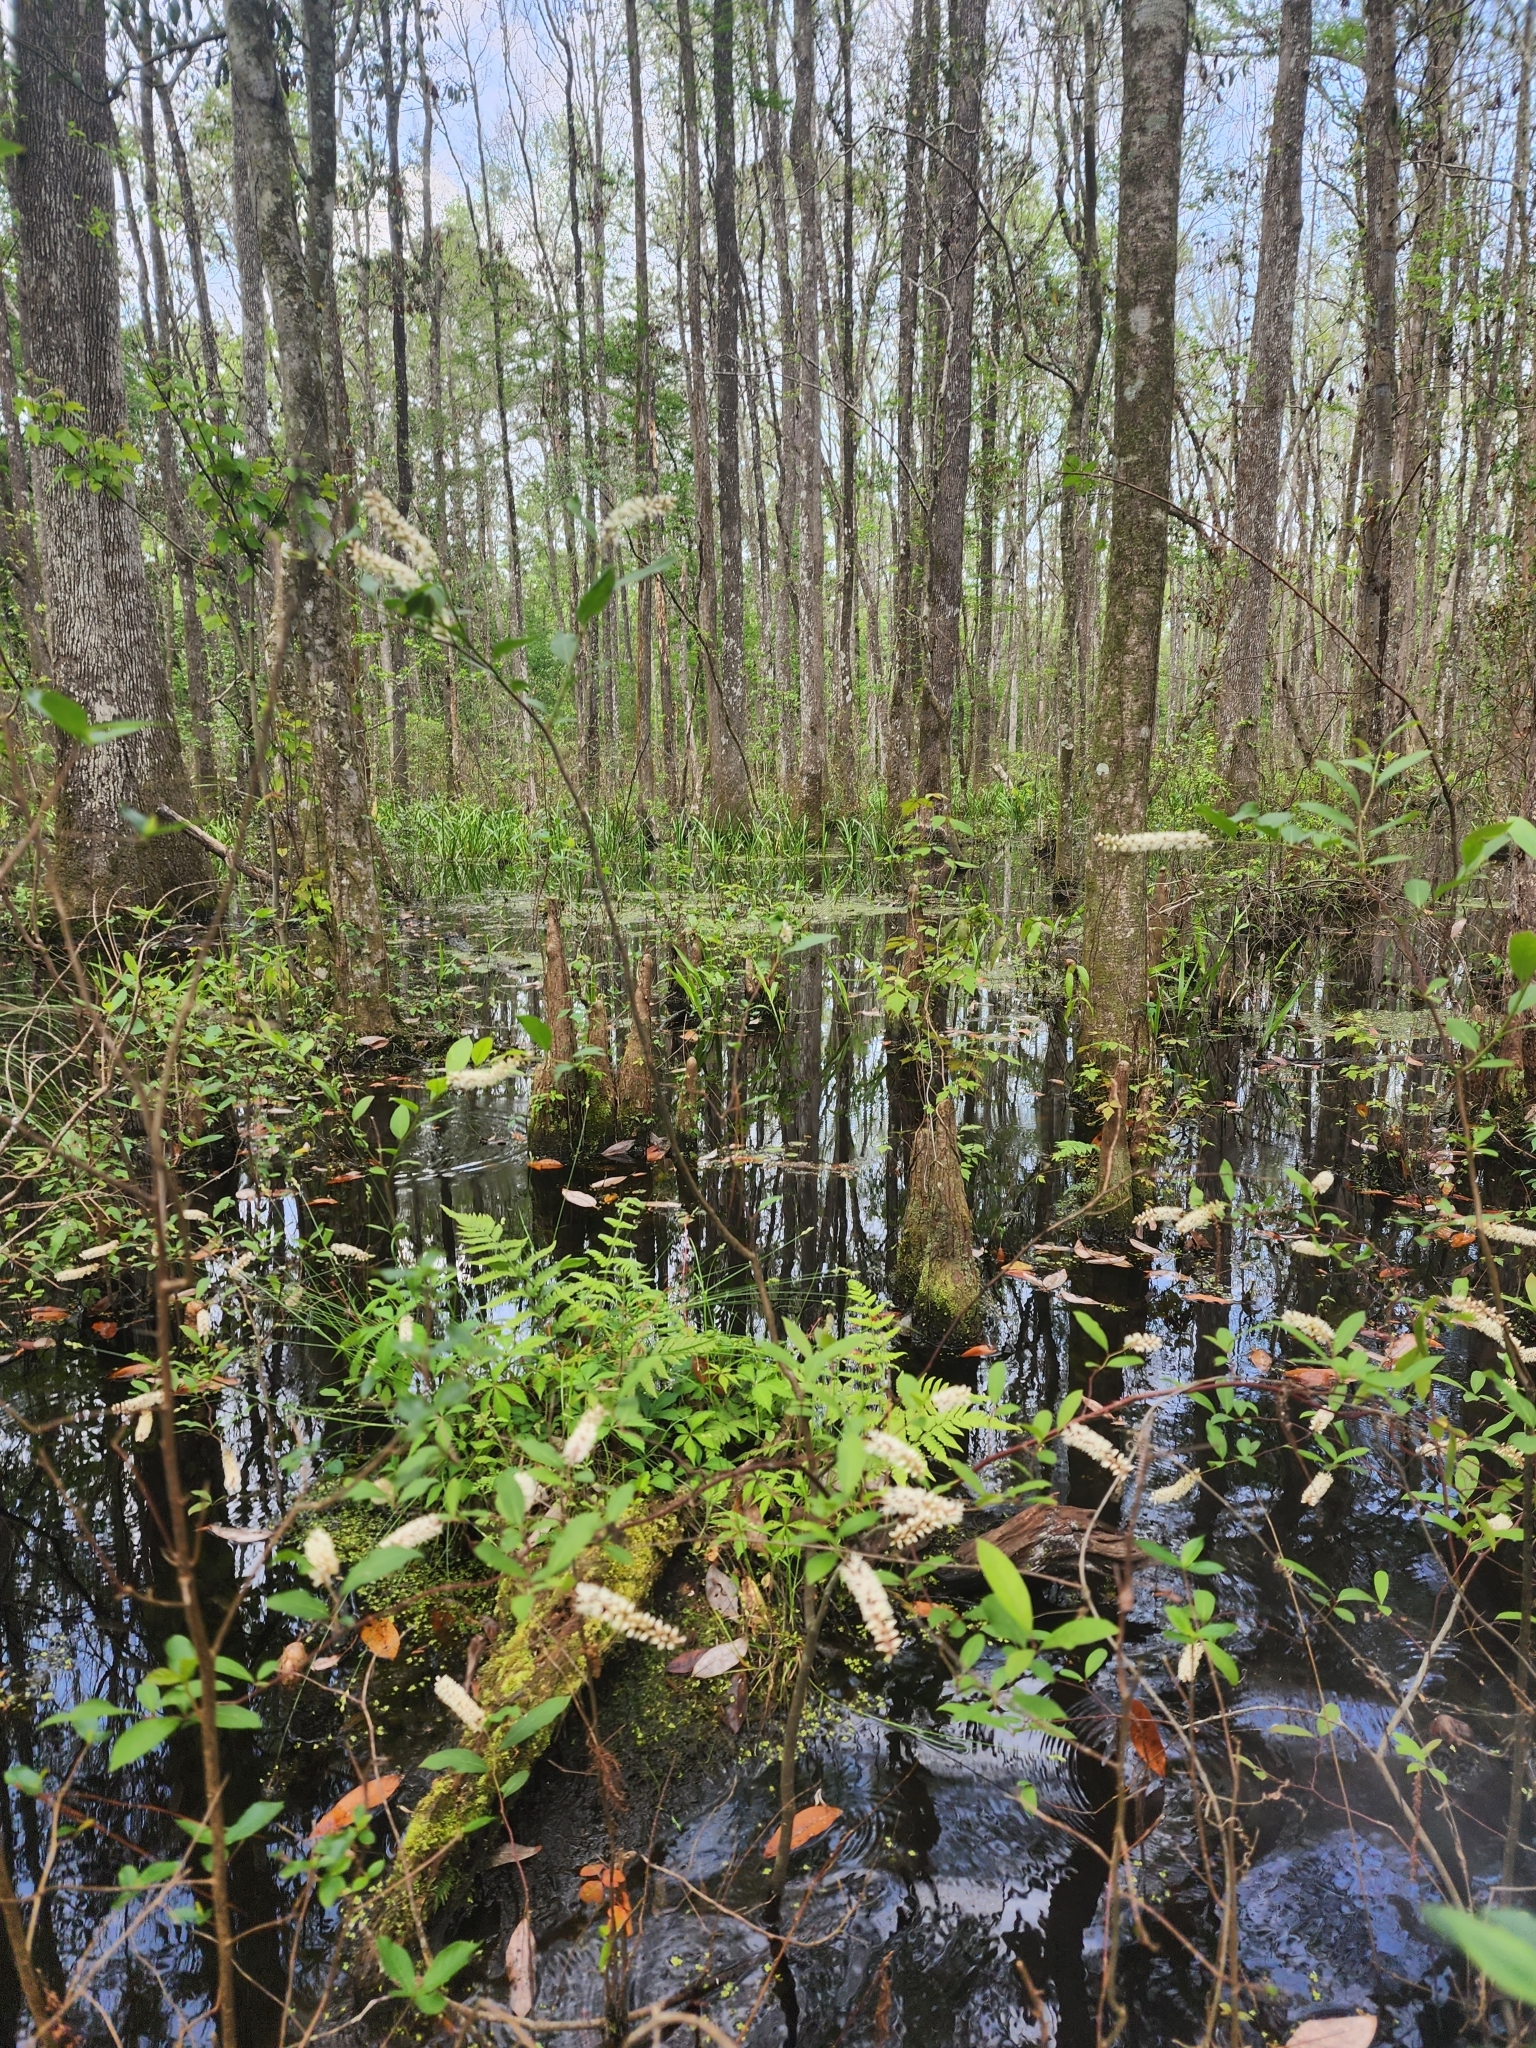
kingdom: Plantae
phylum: Tracheophyta
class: Magnoliopsida
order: Saxifragales
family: Iteaceae
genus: Itea
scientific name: Itea virginica
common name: Sweetspire
